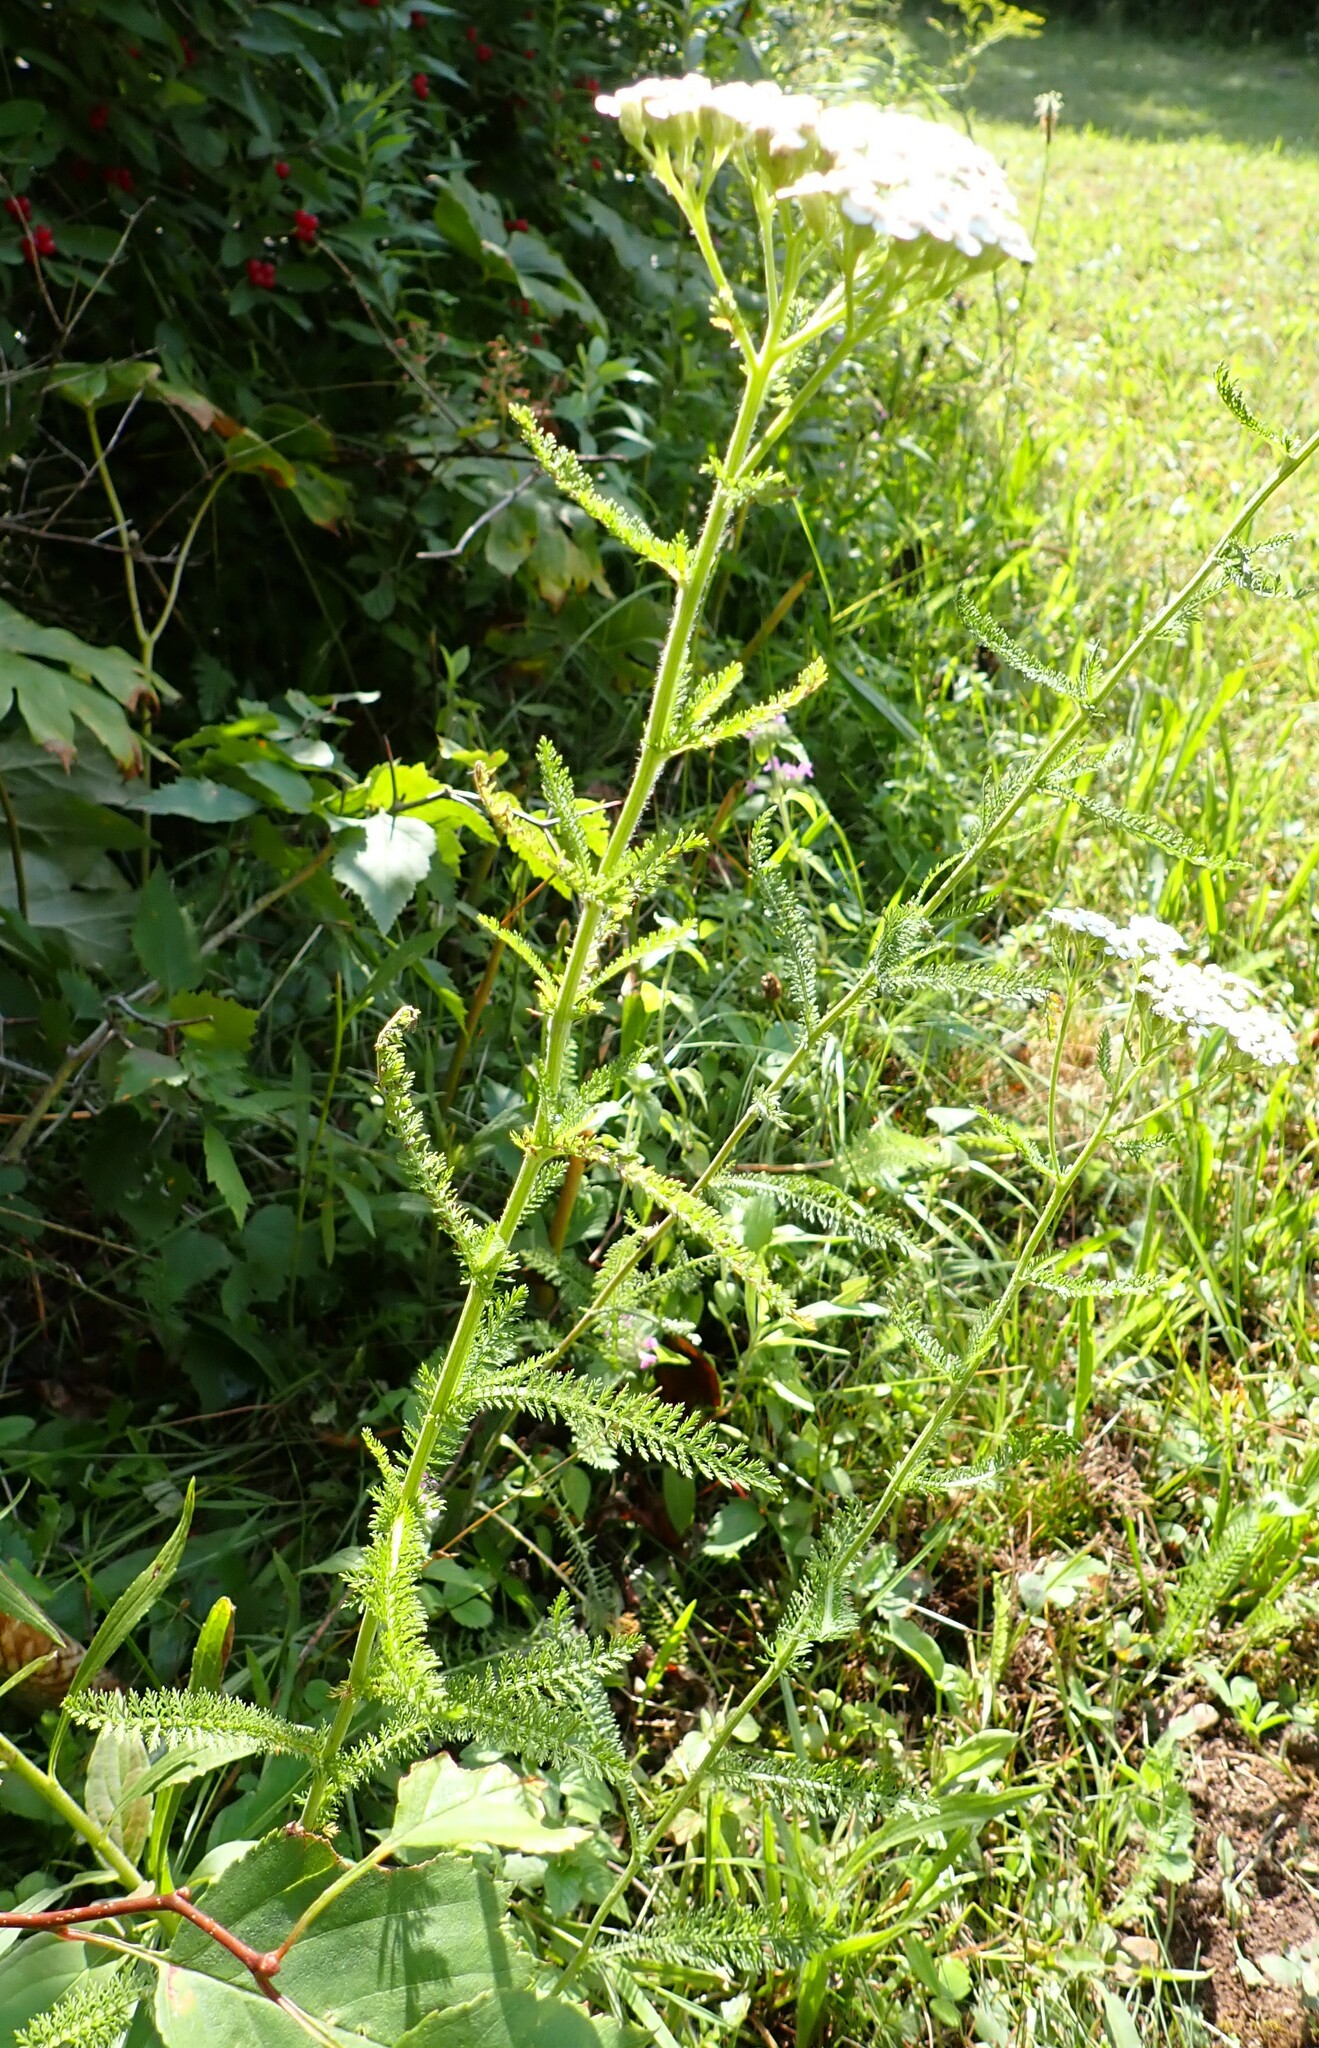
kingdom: Plantae
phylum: Tracheophyta
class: Magnoliopsida
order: Asterales
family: Asteraceae
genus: Achillea
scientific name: Achillea millefolium
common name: Yarrow
